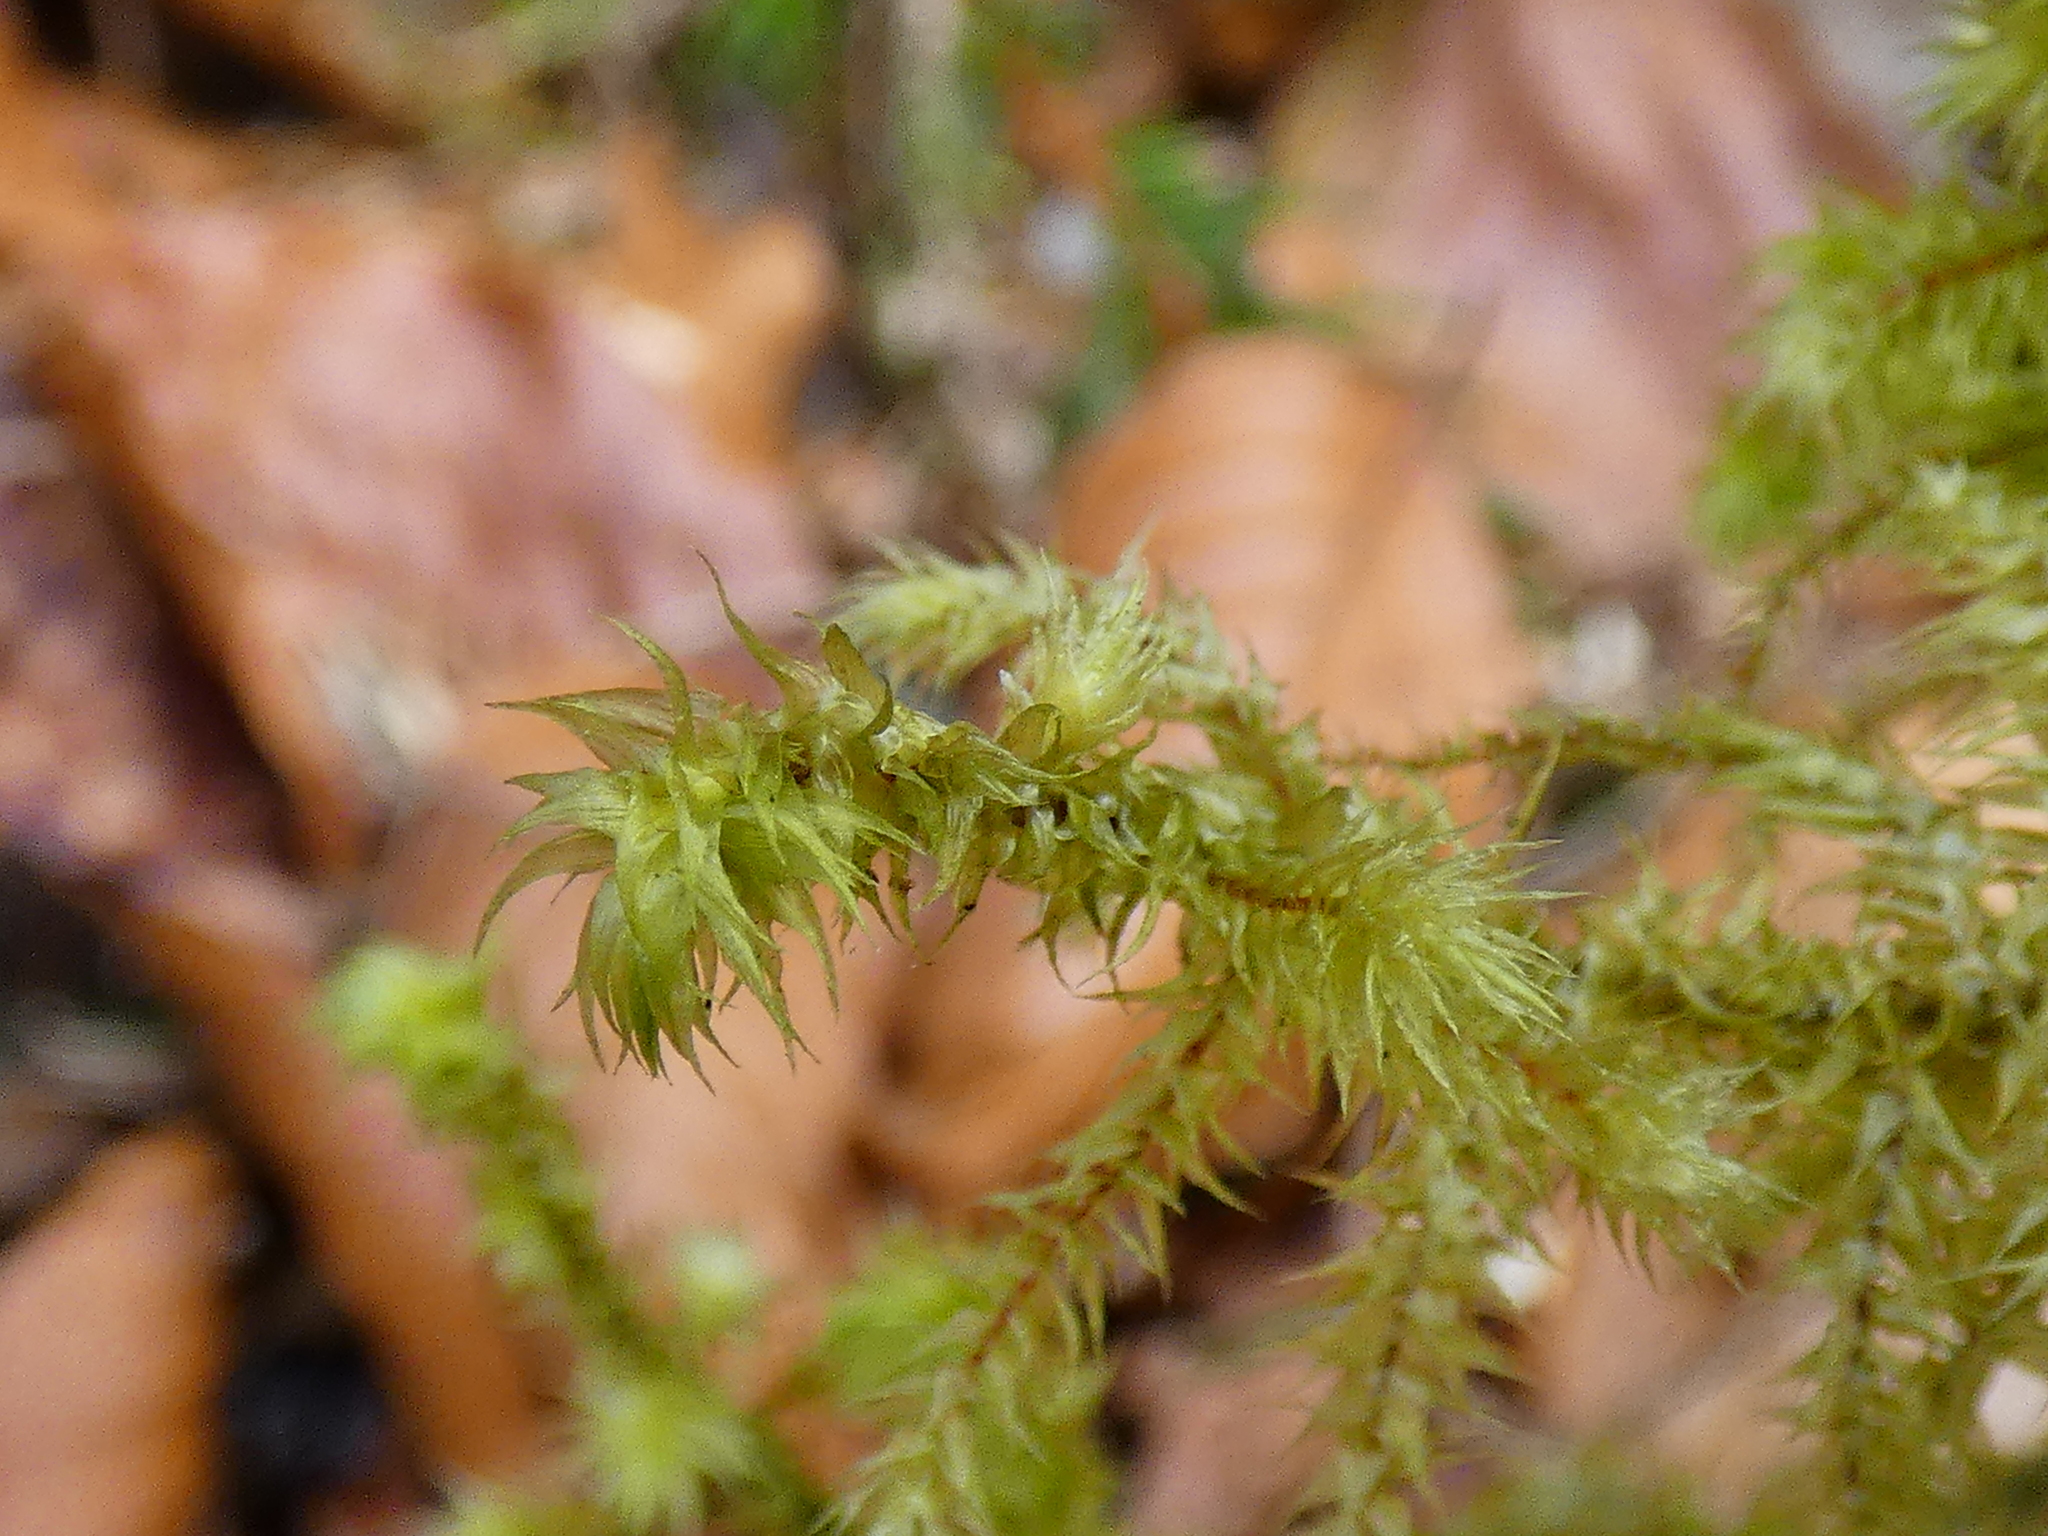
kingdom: Plantae
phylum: Bryophyta
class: Bryopsida
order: Hypnales
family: Hylocomiaceae
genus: Hylocomiadelphus
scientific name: Hylocomiadelphus triquetrus
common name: Rough goose neck moss
